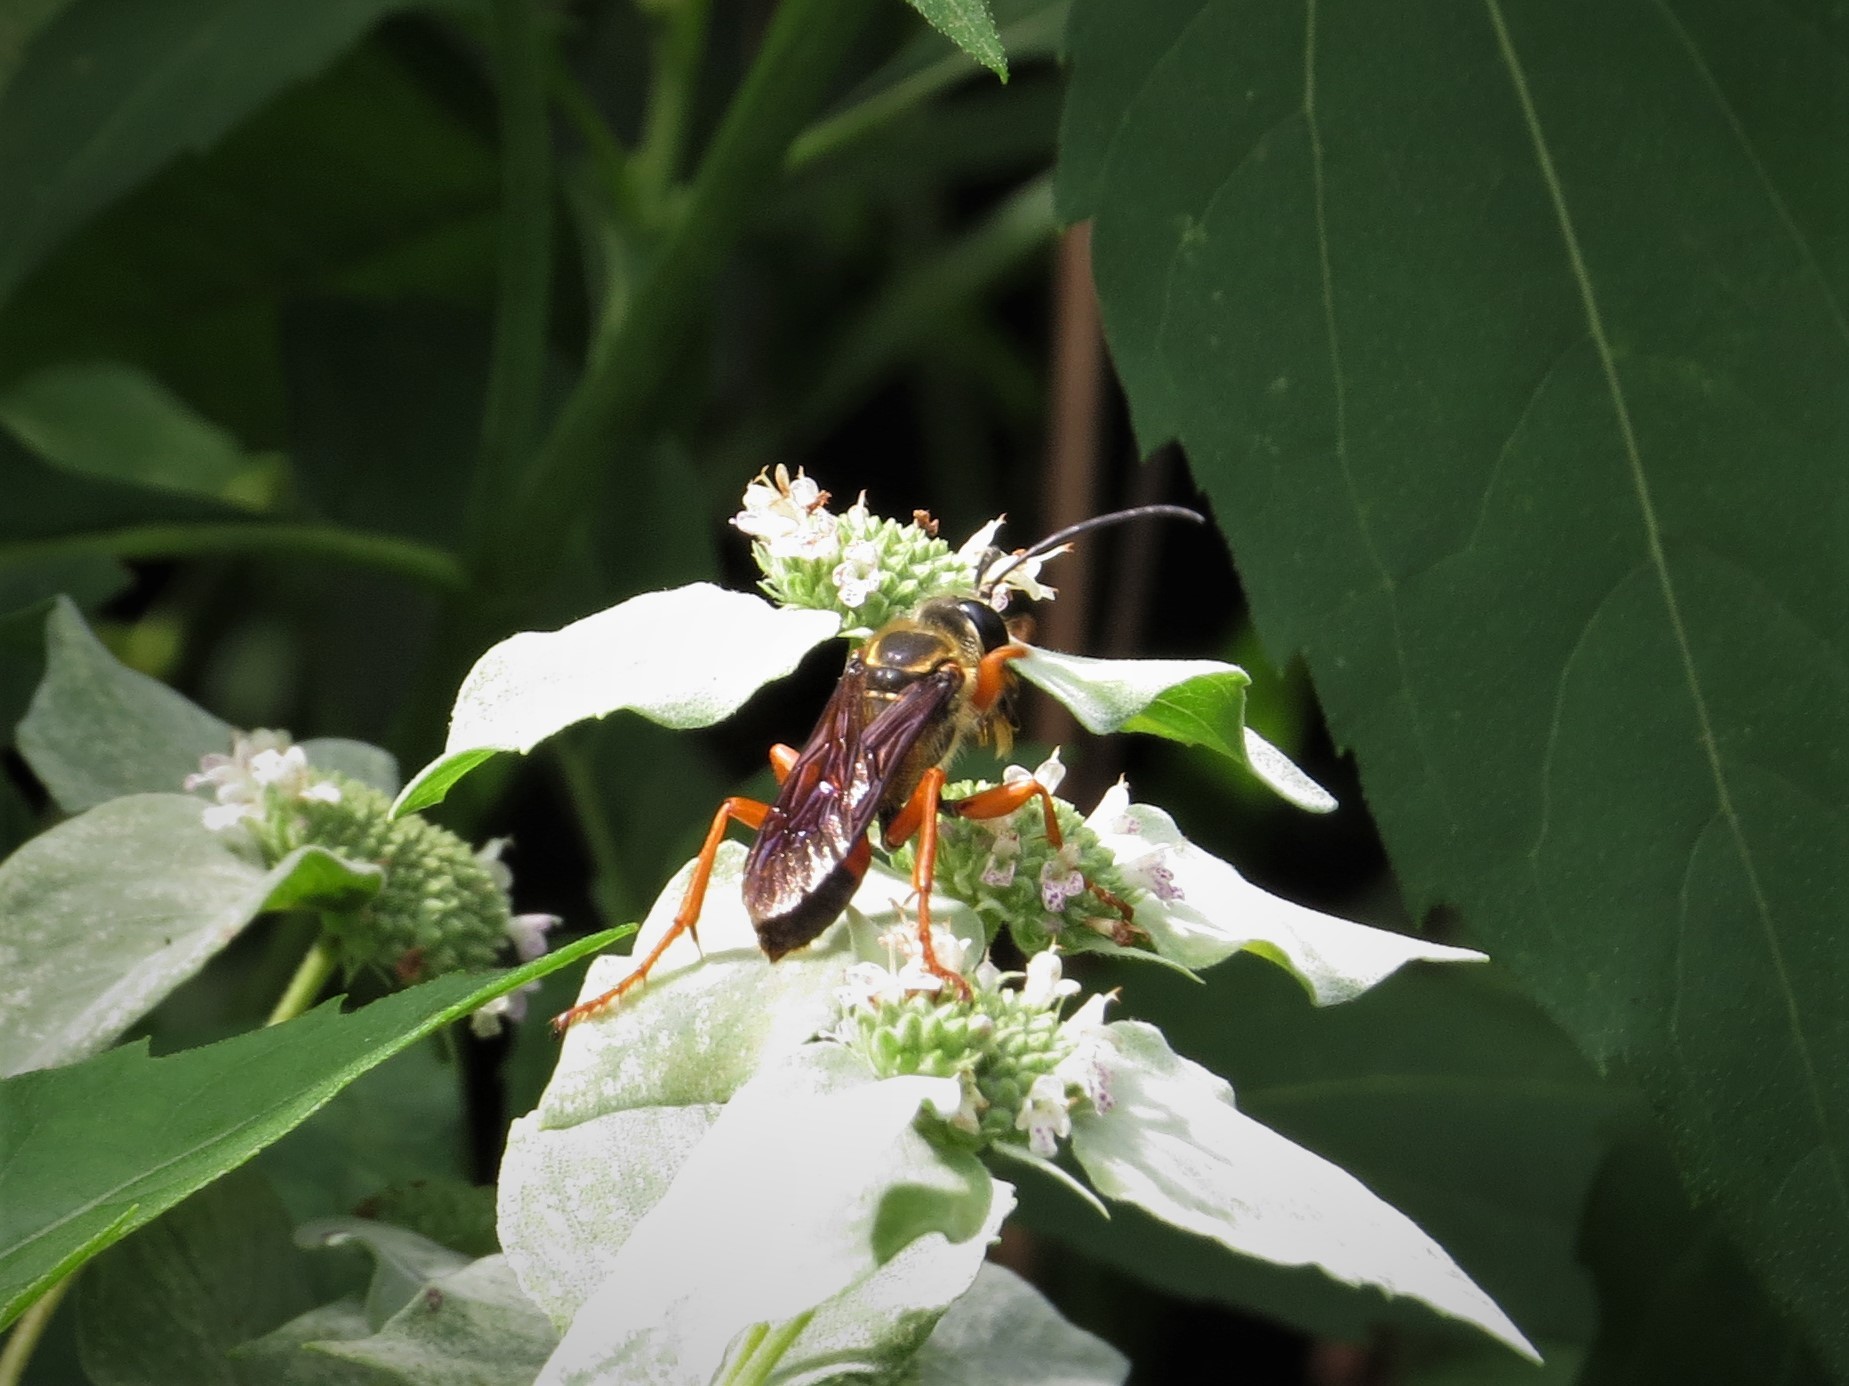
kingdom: Animalia
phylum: Arthropoda
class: Insecta
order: Hymenoptera
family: Sphecidae
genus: Sphex
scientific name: Sphex ichneumoneus
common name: Great golden digger wasp
